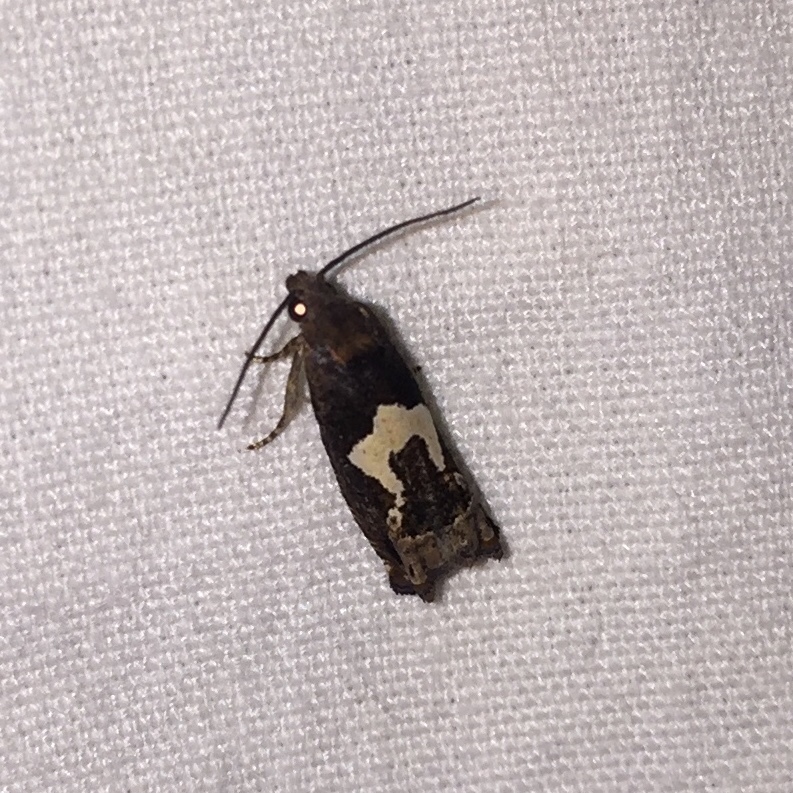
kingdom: Animalia
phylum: Arthropoda
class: Insecta
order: Lepidoptera
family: Tortricidae
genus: Epiblema
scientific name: Epiblema otiosana
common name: Bidens borer moth
